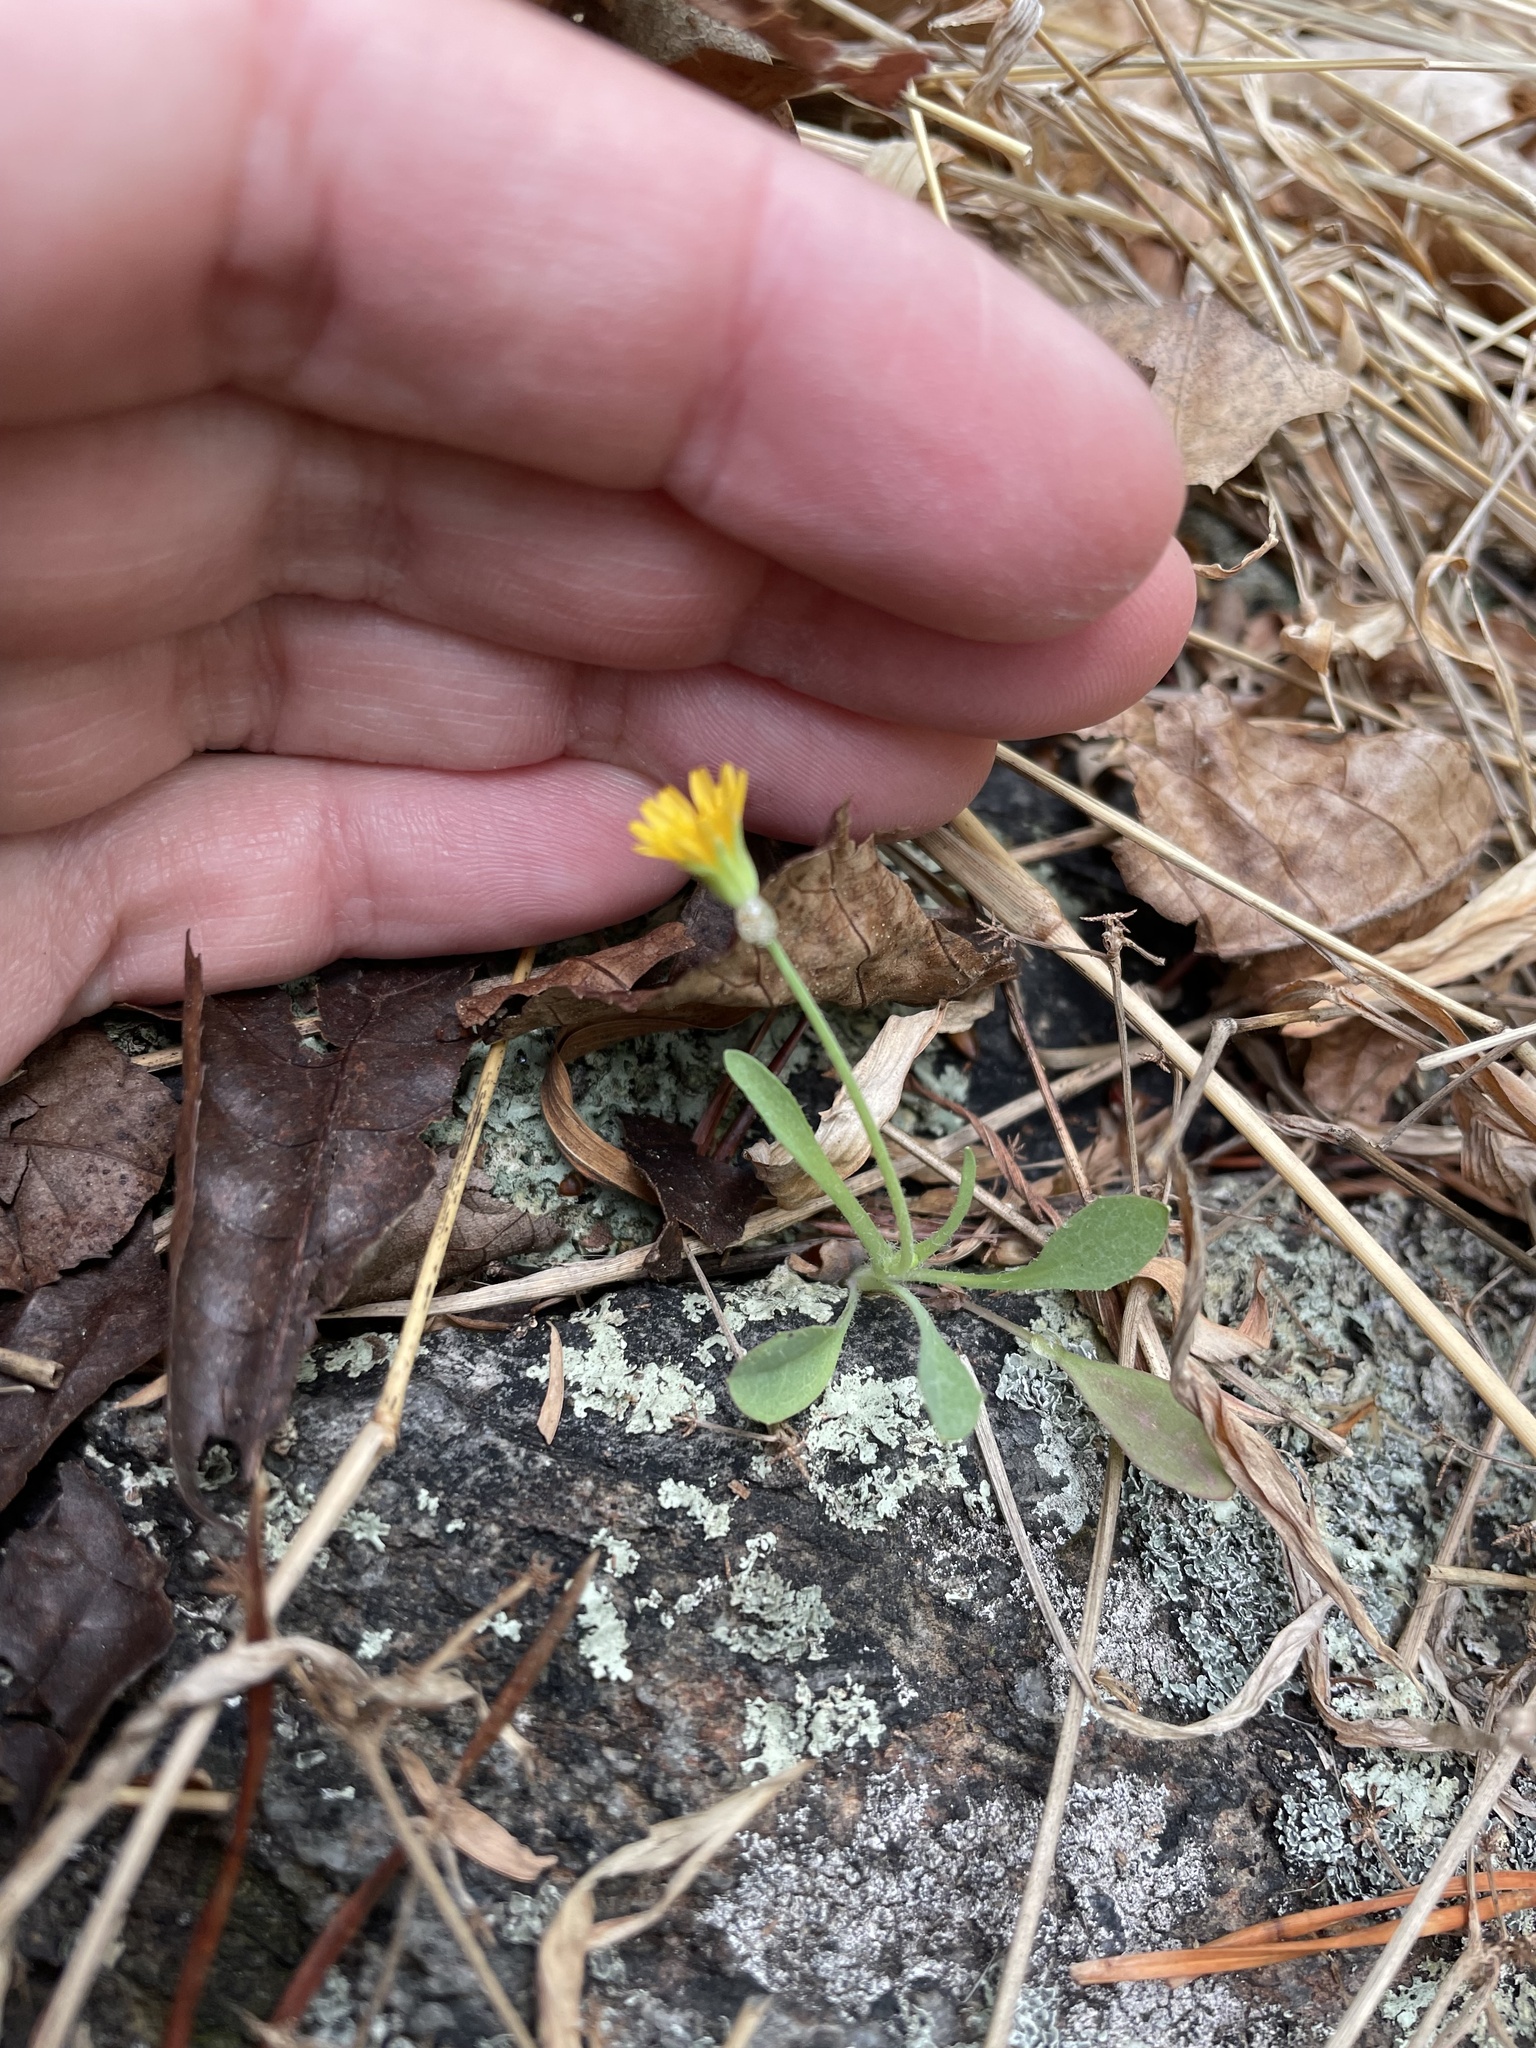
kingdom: Plantae
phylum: Tracheophyta
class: Magnoliopsida
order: Asterales
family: Asteraceae
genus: Krigia
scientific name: Krigia virginica
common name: Virginia dwarf-dandelion
